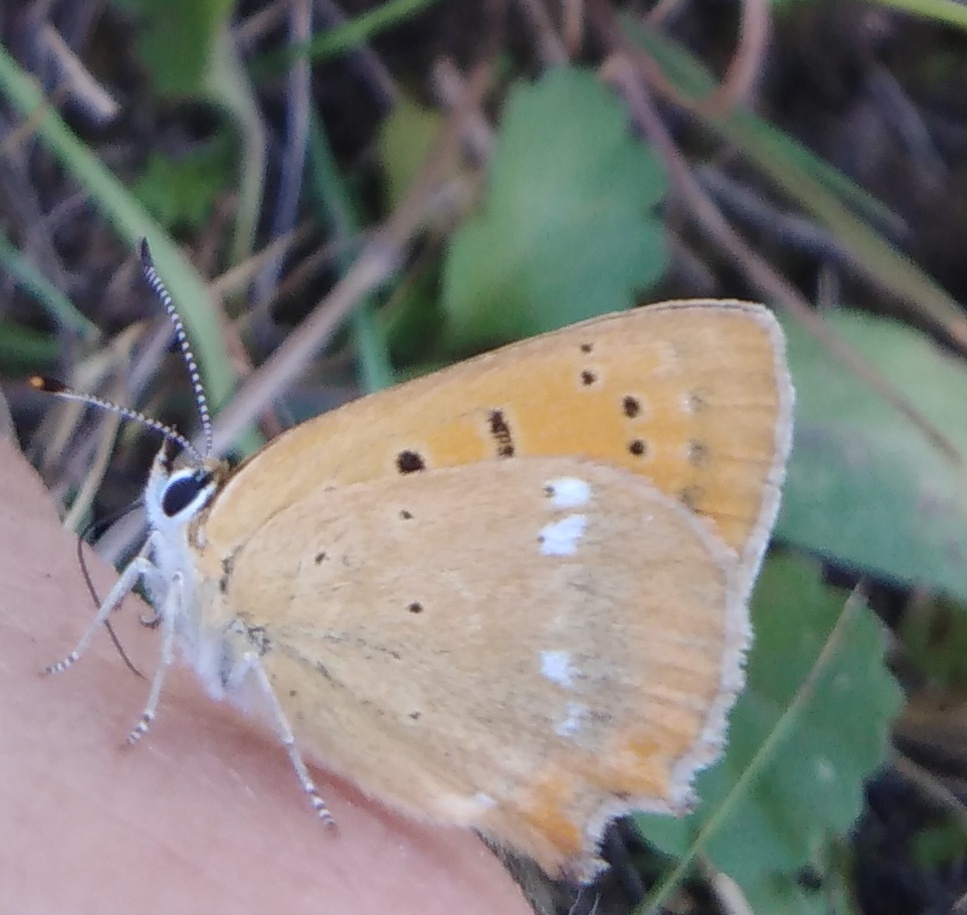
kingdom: Animalia
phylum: Arthropoda
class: Insecta
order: Lepidoptera
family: Lycaenidae
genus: Lycaena
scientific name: Lycaena virgaureae
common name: Scarce copper
